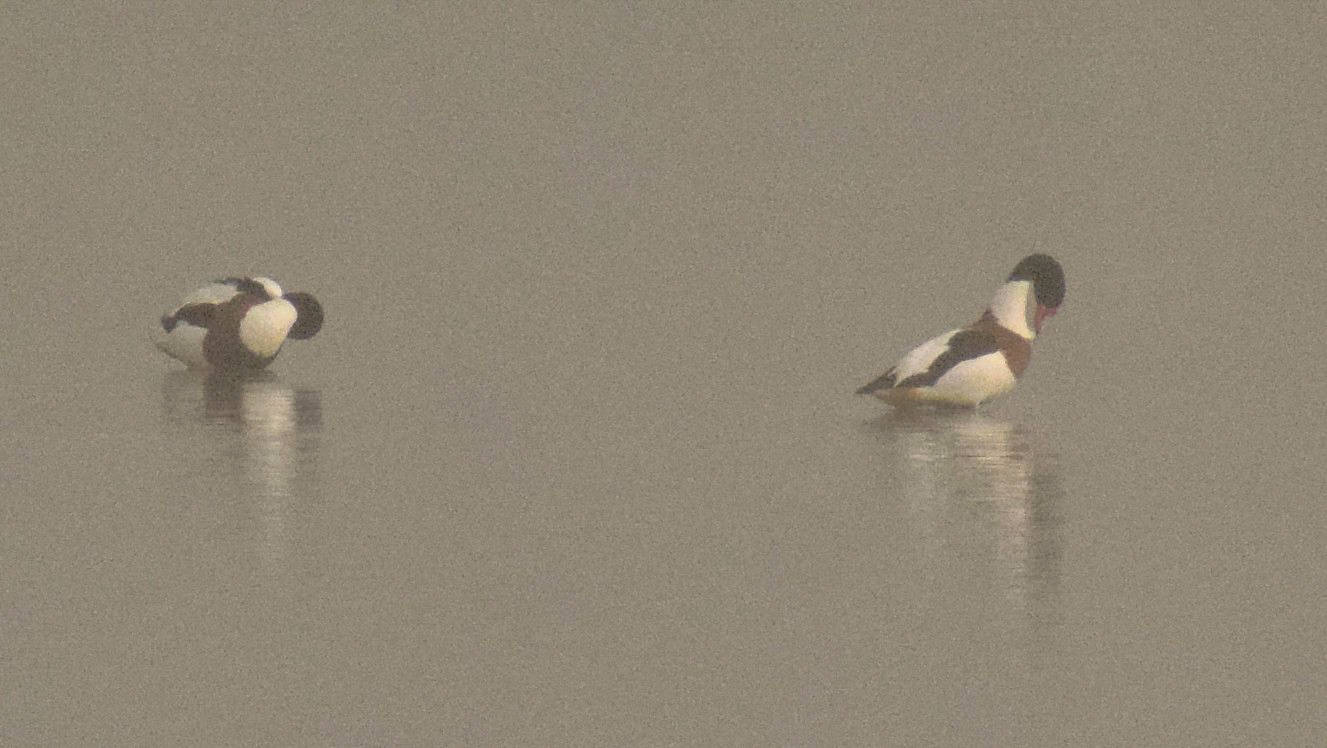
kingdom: Animalia
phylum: Chordata
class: Aves
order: Anseriformes
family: Anatidae
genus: Tadorna
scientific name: Tadorna tadorna
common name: Common shelduck
